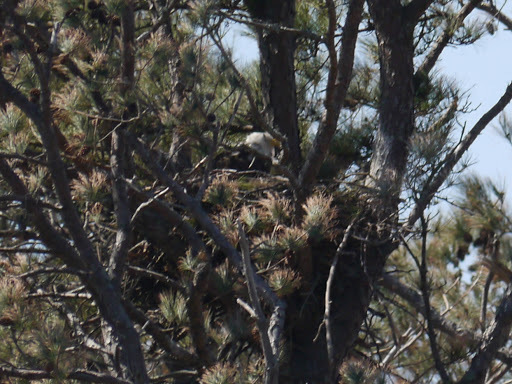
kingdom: Animalia
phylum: Chordata
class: Aves
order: Accipitriformes
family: Accipitridae
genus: Haliaeetus
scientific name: Haliaeetus leucocephalus
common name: Bald eagle
